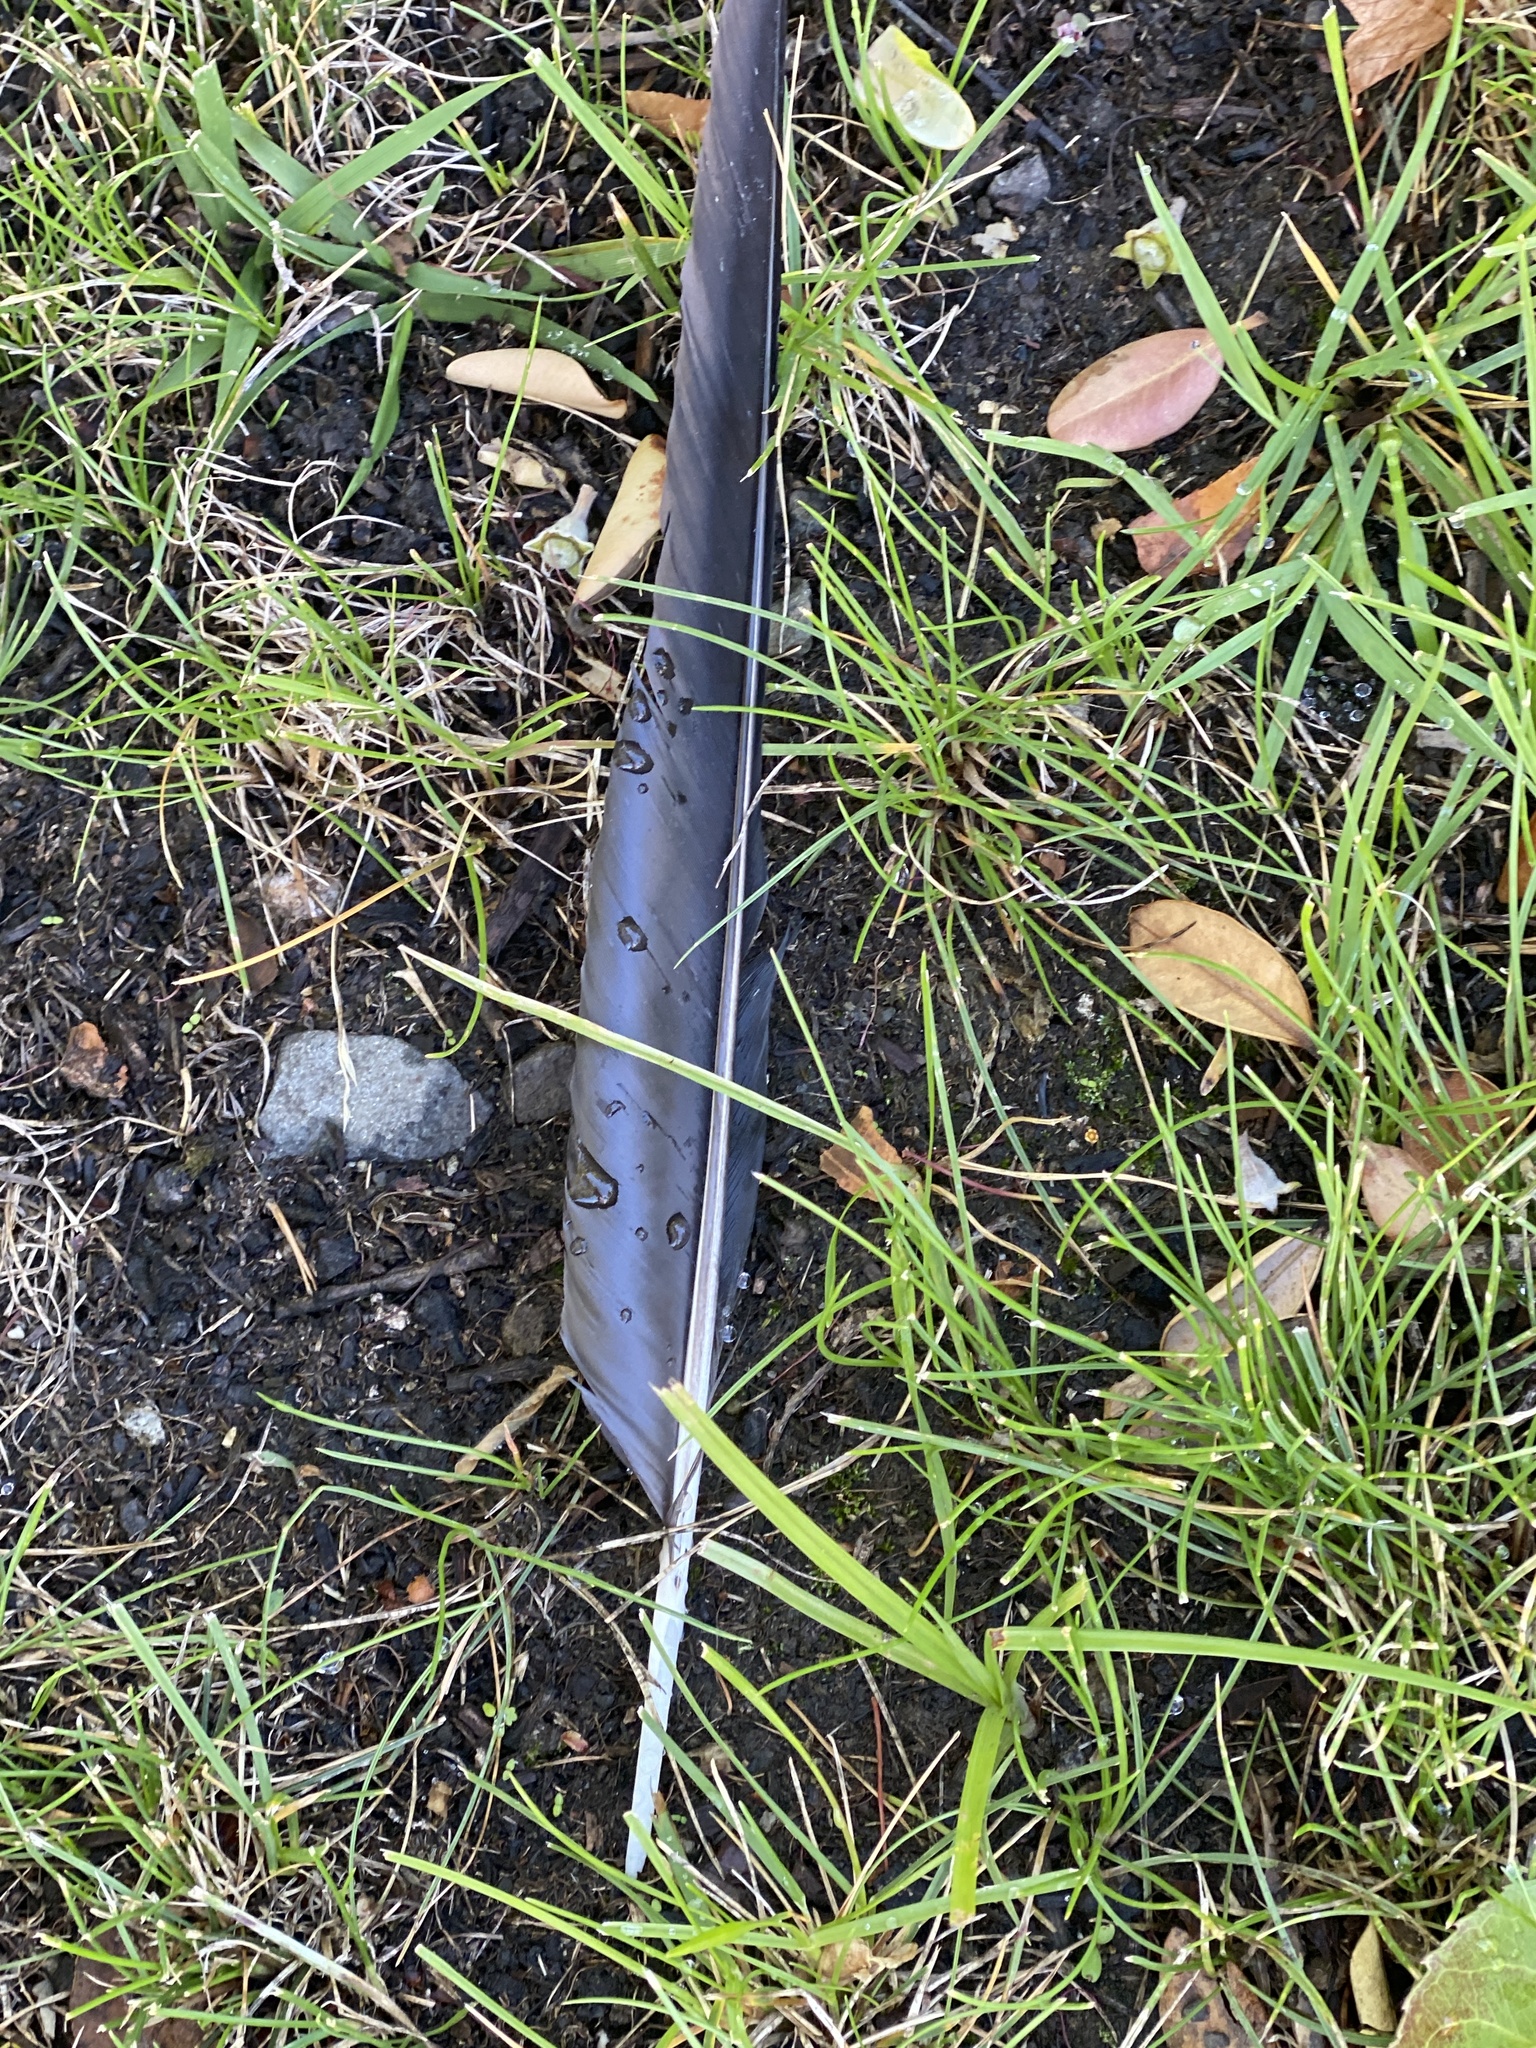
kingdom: Animalia
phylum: Chordata
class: Aves
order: Passeriformes
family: Corvidae
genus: Corvus
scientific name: Corvus brachyrhynchos
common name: American crow
